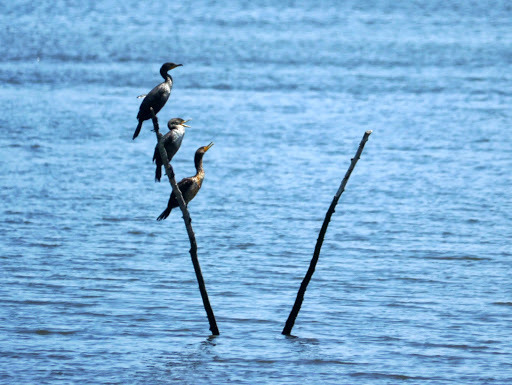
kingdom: Animalia
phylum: Chordata
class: Aves
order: Suliformes
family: Phalacrocoracidae
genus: Phalacrocorax
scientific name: Phalacrocorax auritus
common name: Double-crested cormorant
